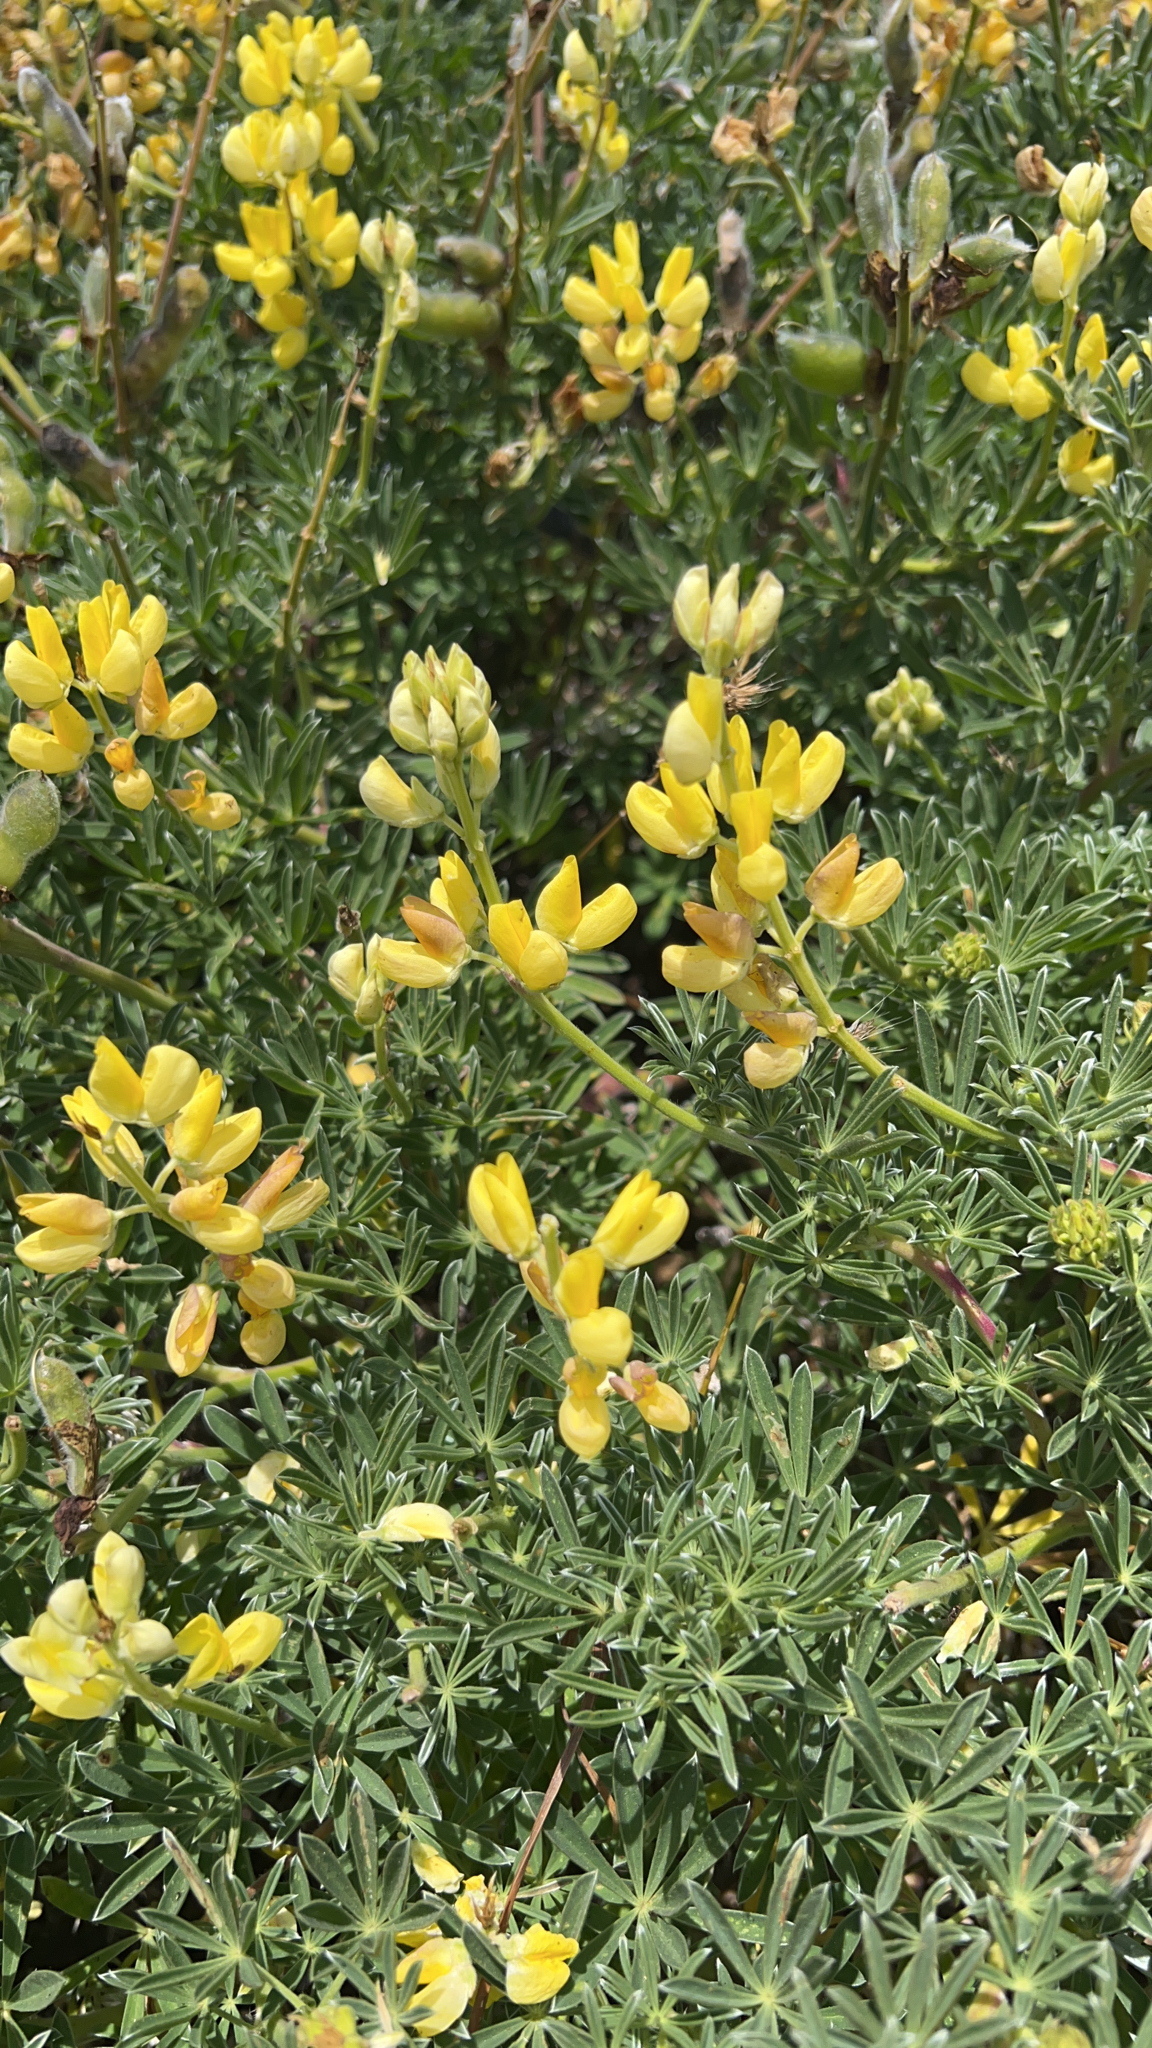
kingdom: Plantae
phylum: Tracheophyta
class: Magnoliopsida
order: Fabales
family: Fabaceae
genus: Lupinus
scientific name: Lupinus arboreus
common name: Yellow bush lupine
